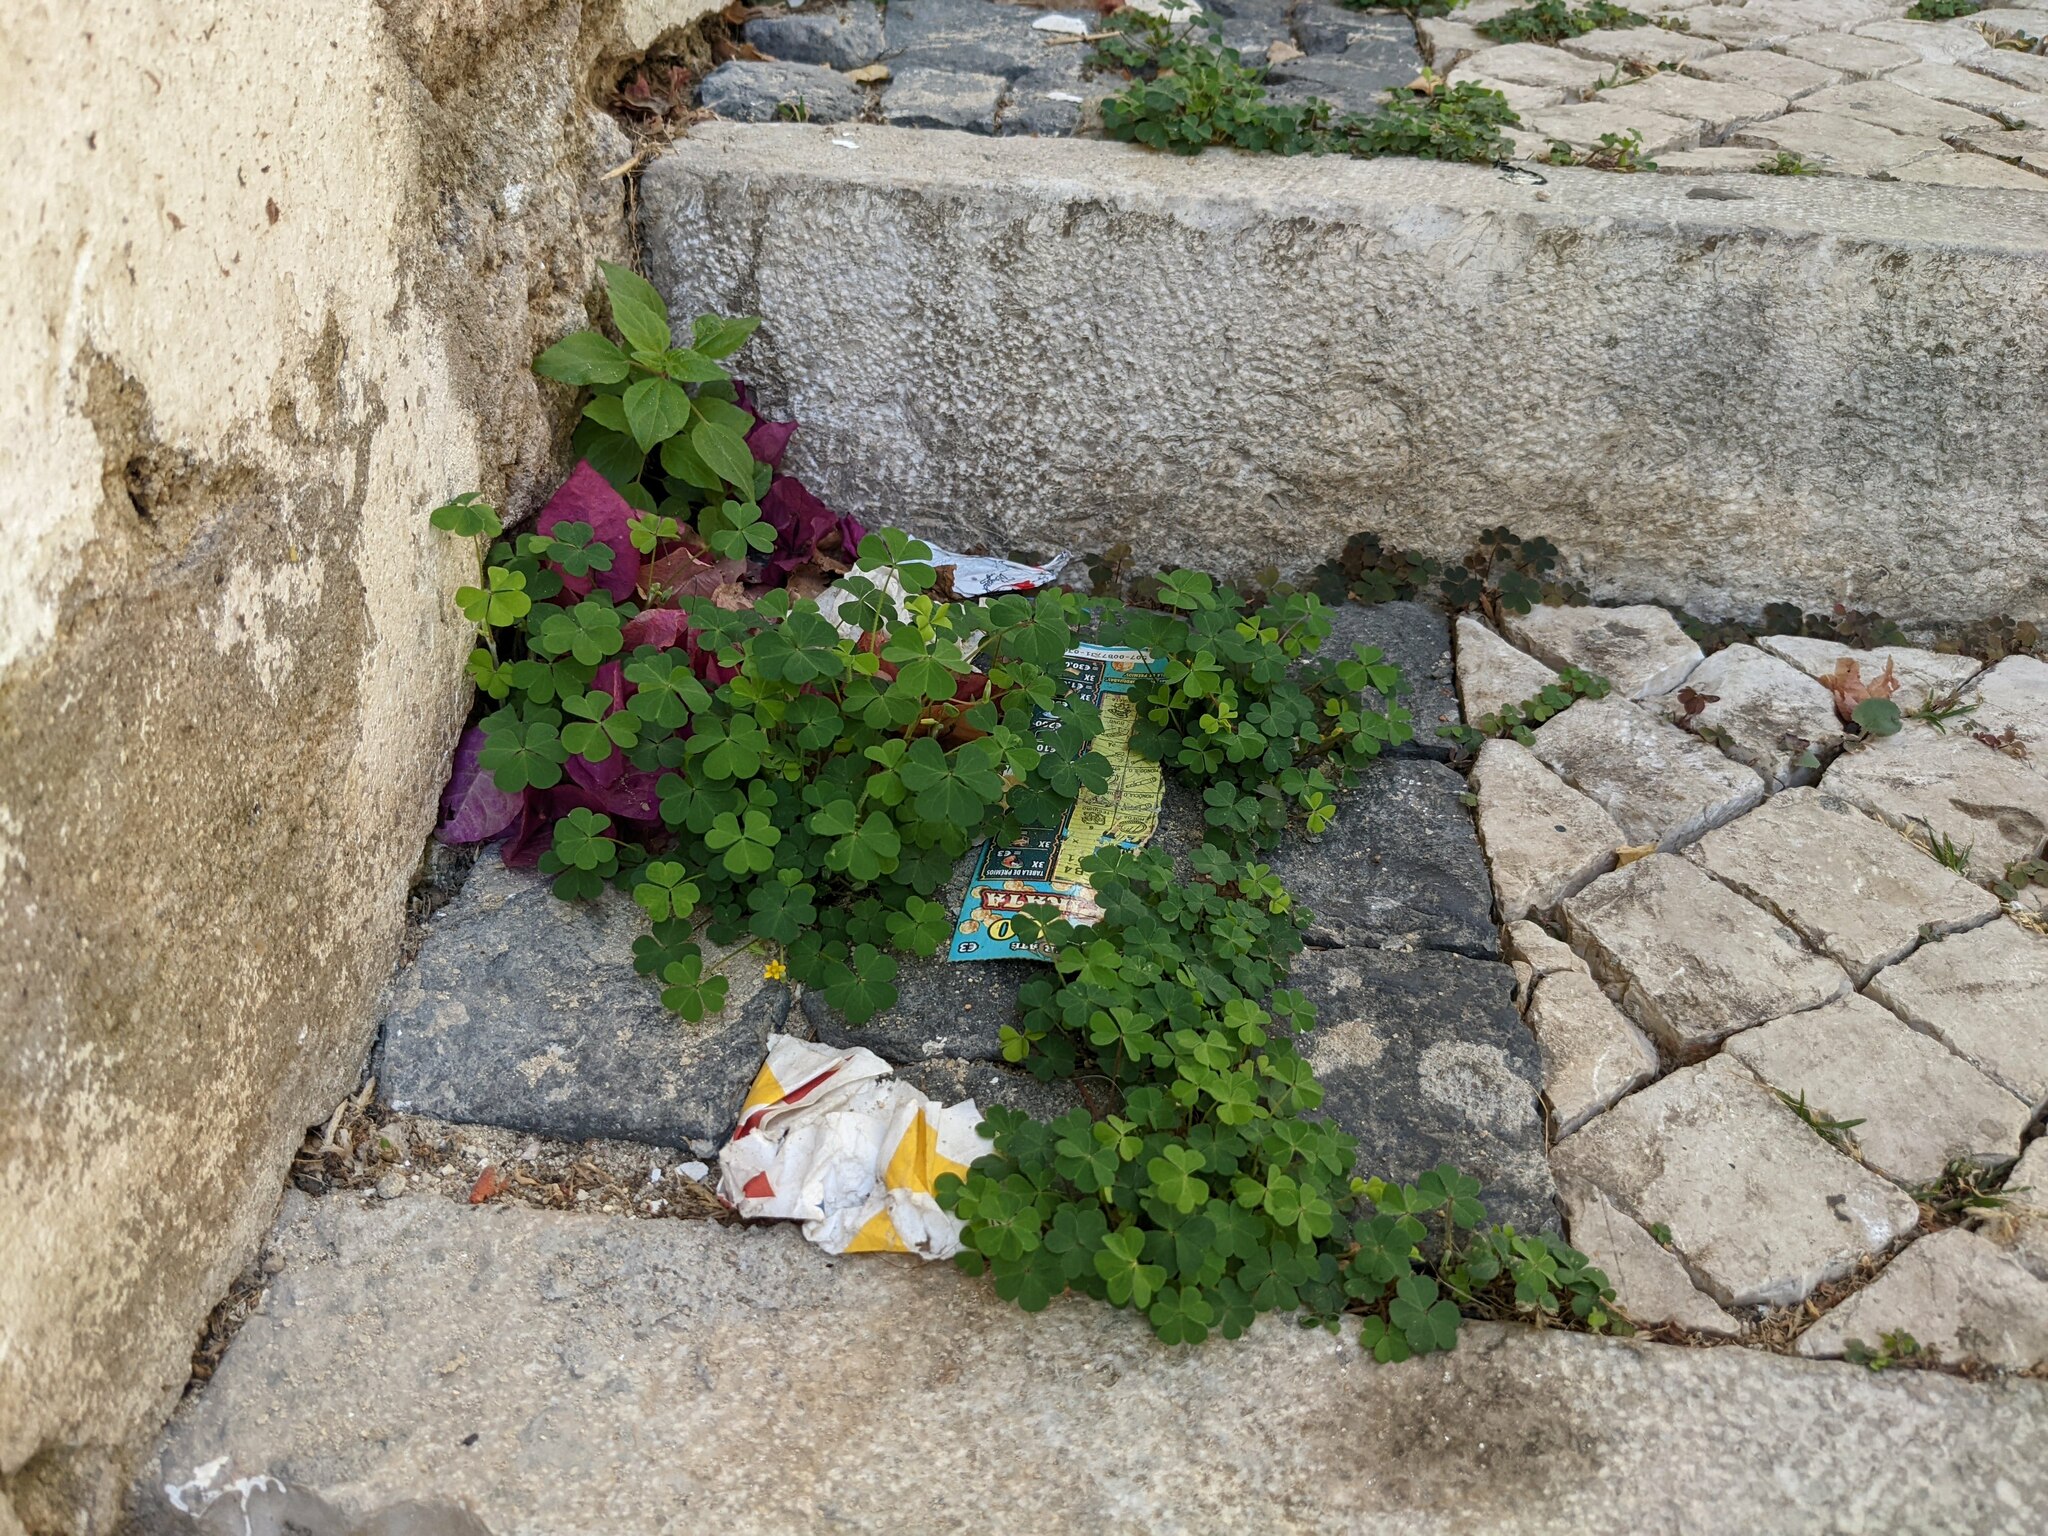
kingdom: Plantae
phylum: Tracheophyta
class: Magnoliopsida
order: Oxalidales
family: Oxalidaceae
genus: Oxalis
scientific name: Oxalis corniculata
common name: Procumbent yellow-sorrel
